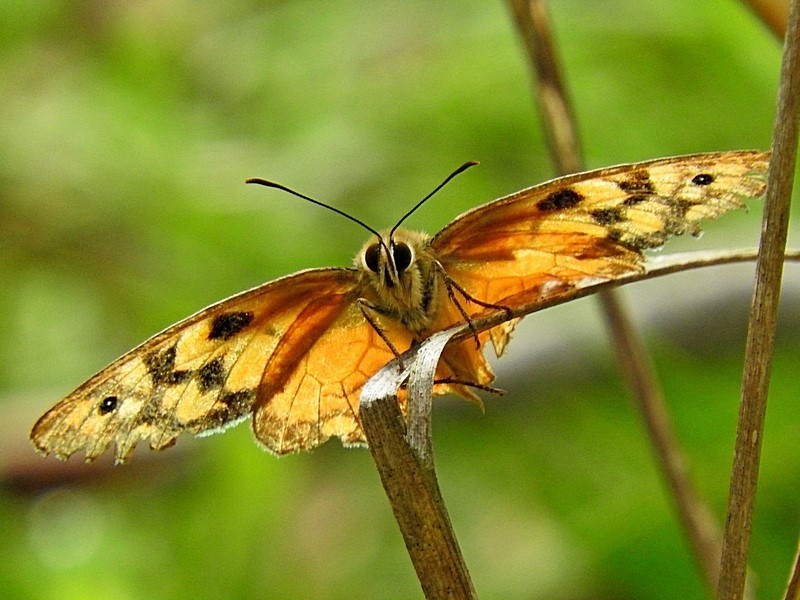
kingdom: Animalia
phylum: Arthropoda
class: Insecta
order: Lepidoptera
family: Nymphalidae
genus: Heteronympha
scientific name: Heteronympha penelope
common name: Shouldered brown
